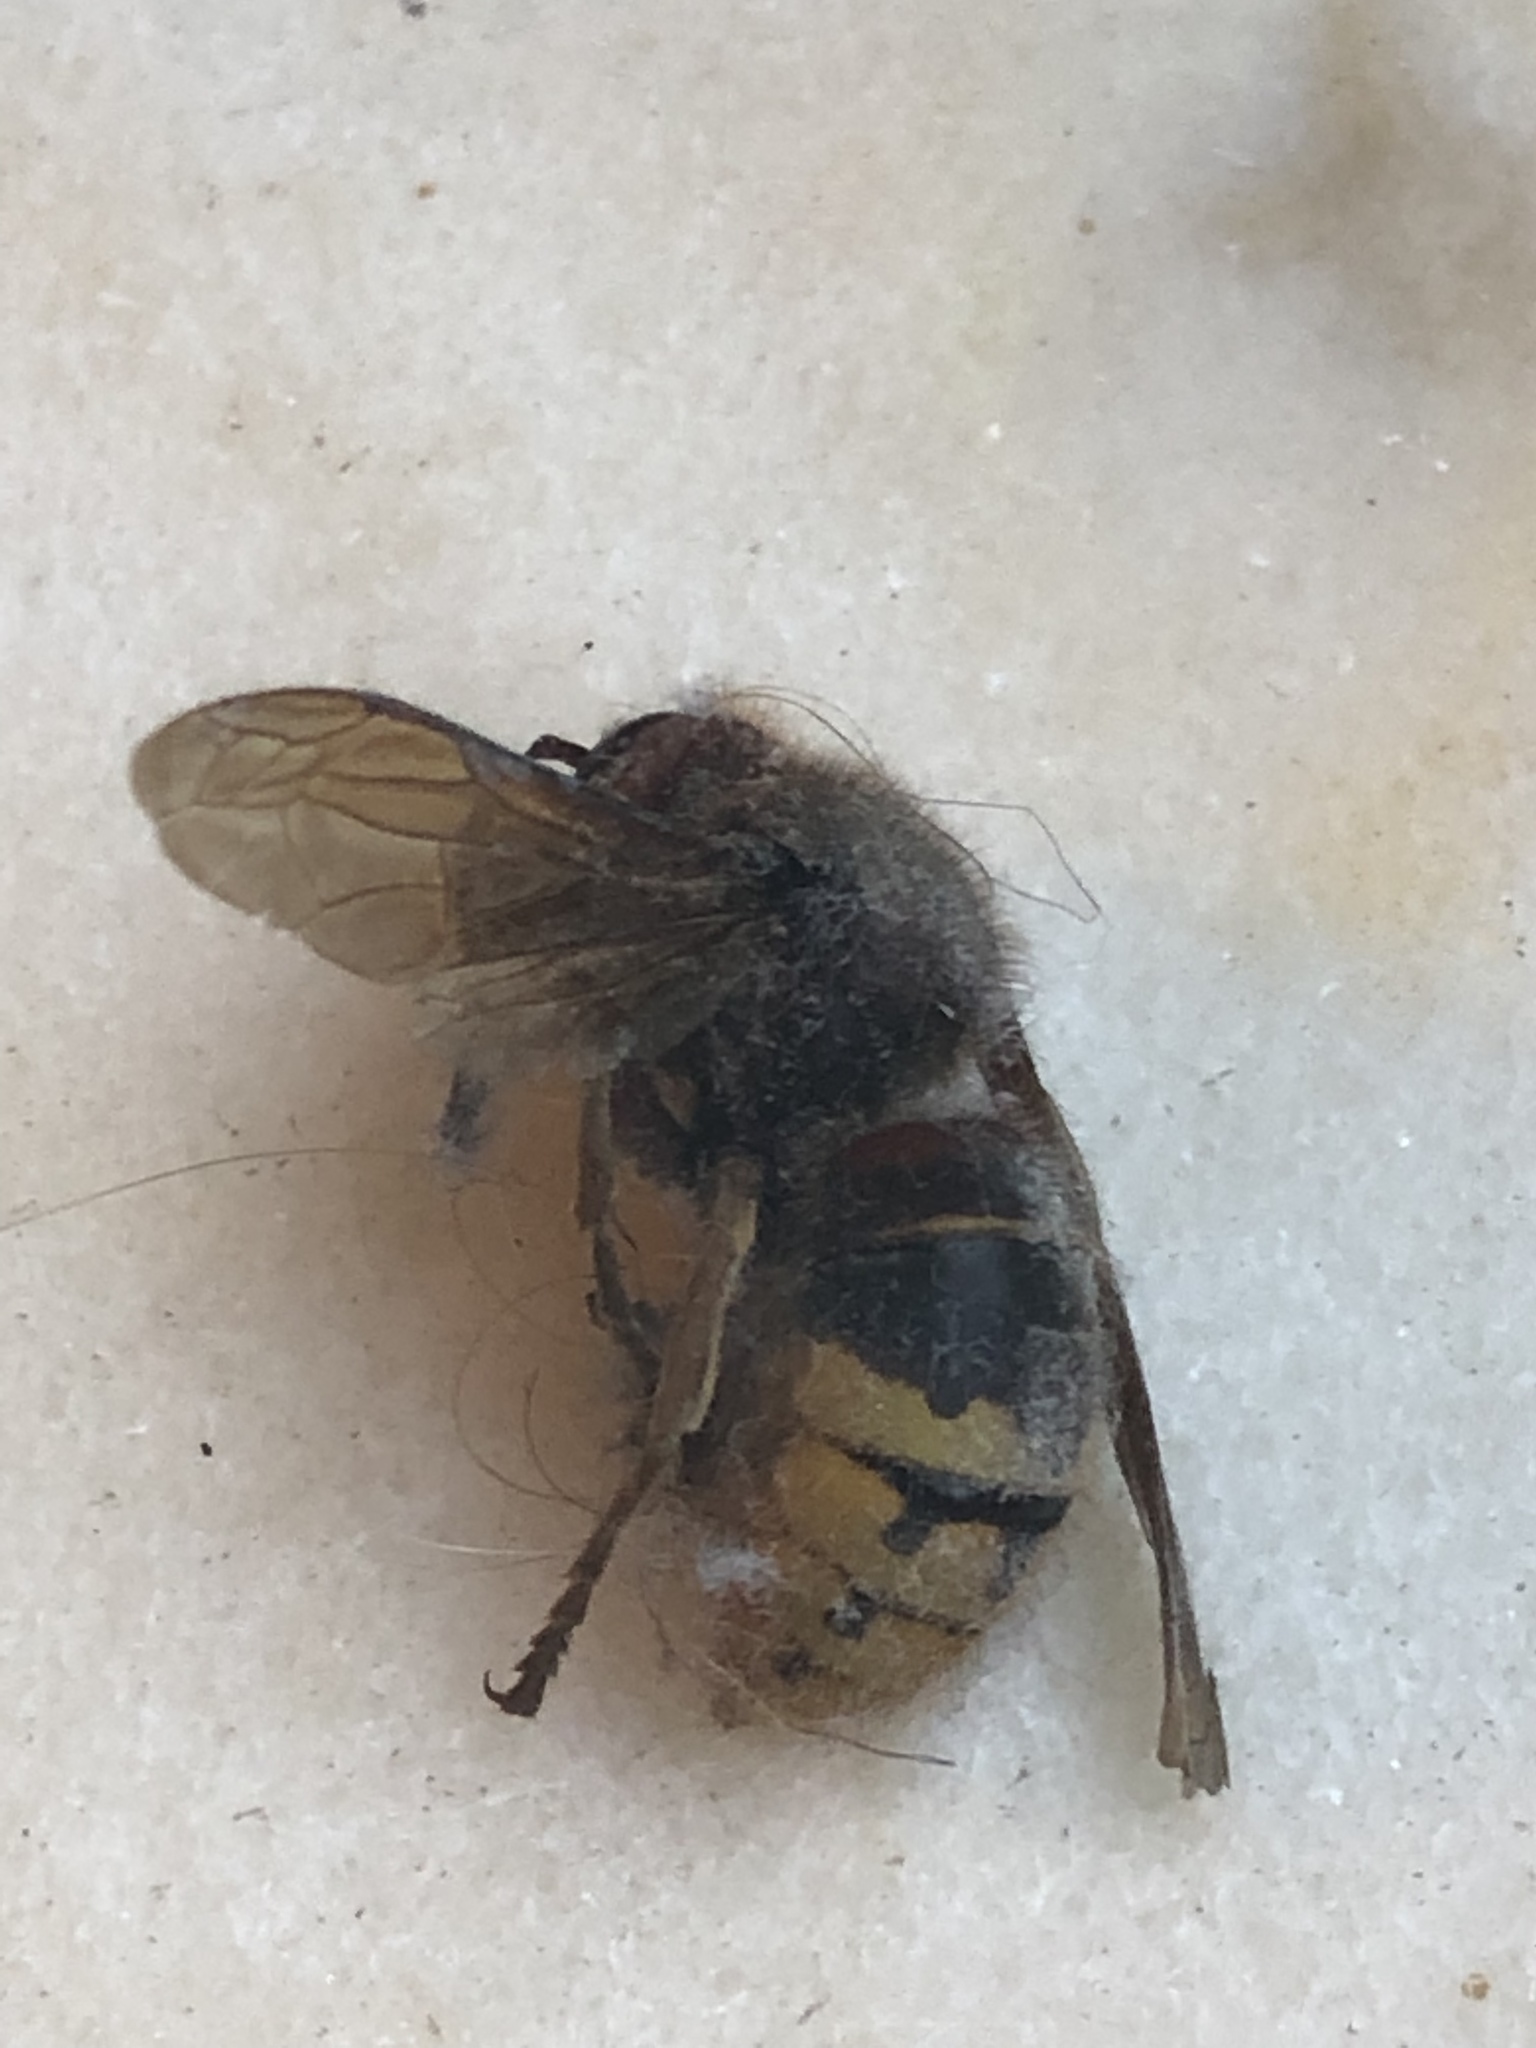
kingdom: Animalia
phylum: Arthropoda
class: Insecta
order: Hymenoptera
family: Vespidae
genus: Vespa
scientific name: Vespa crabro
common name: Hornet
